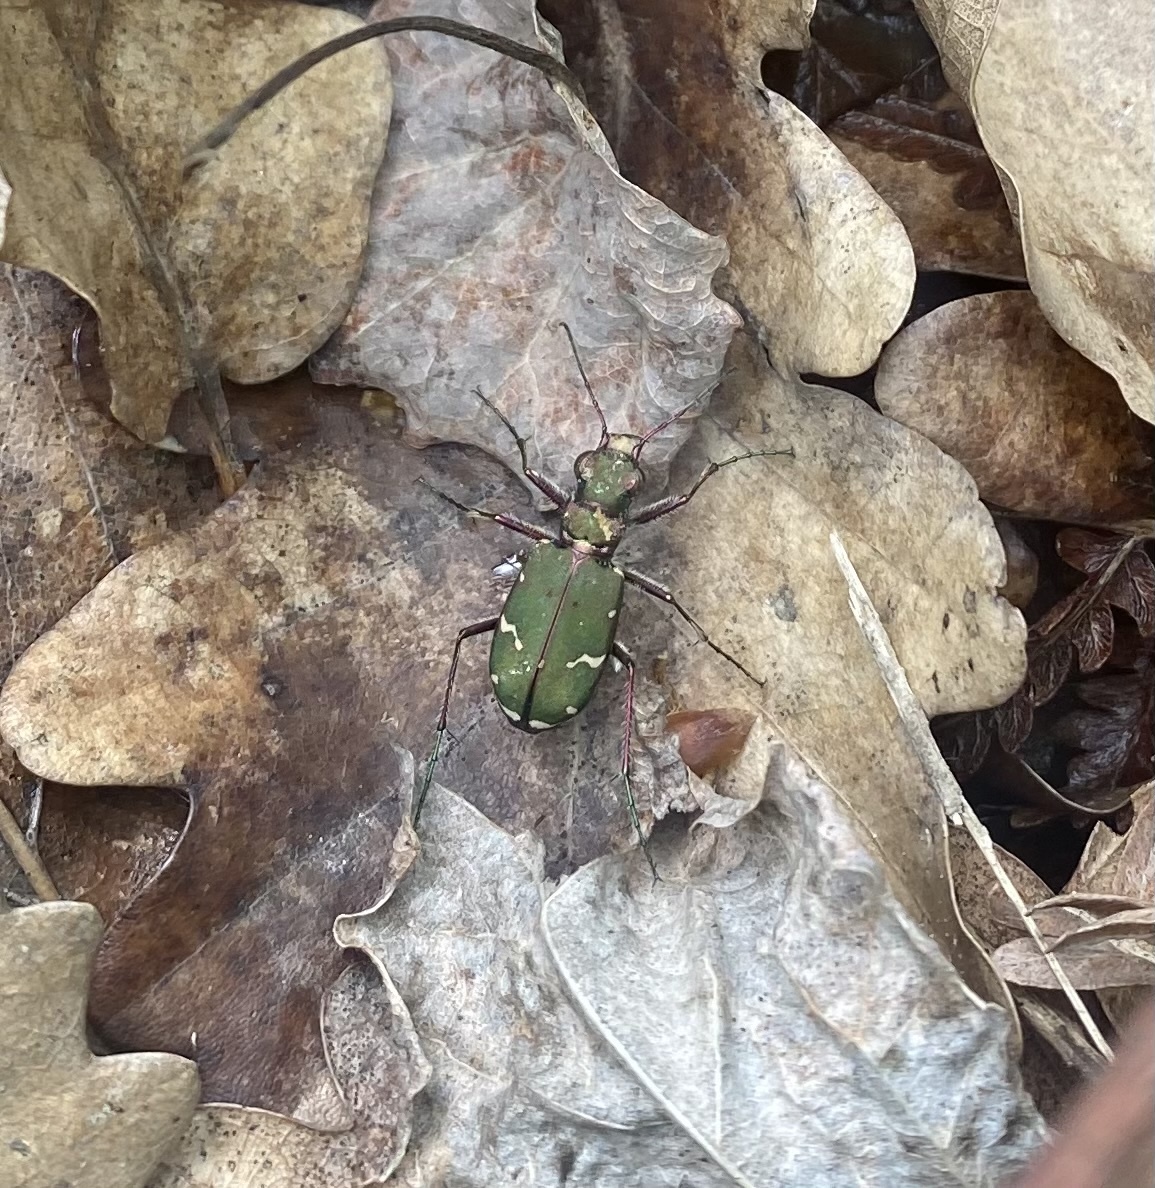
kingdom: Animalia
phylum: Arthropoda
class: Insecta
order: Coleoptera
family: Carabidae
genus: Cicindela
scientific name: Cicindela desertorum
